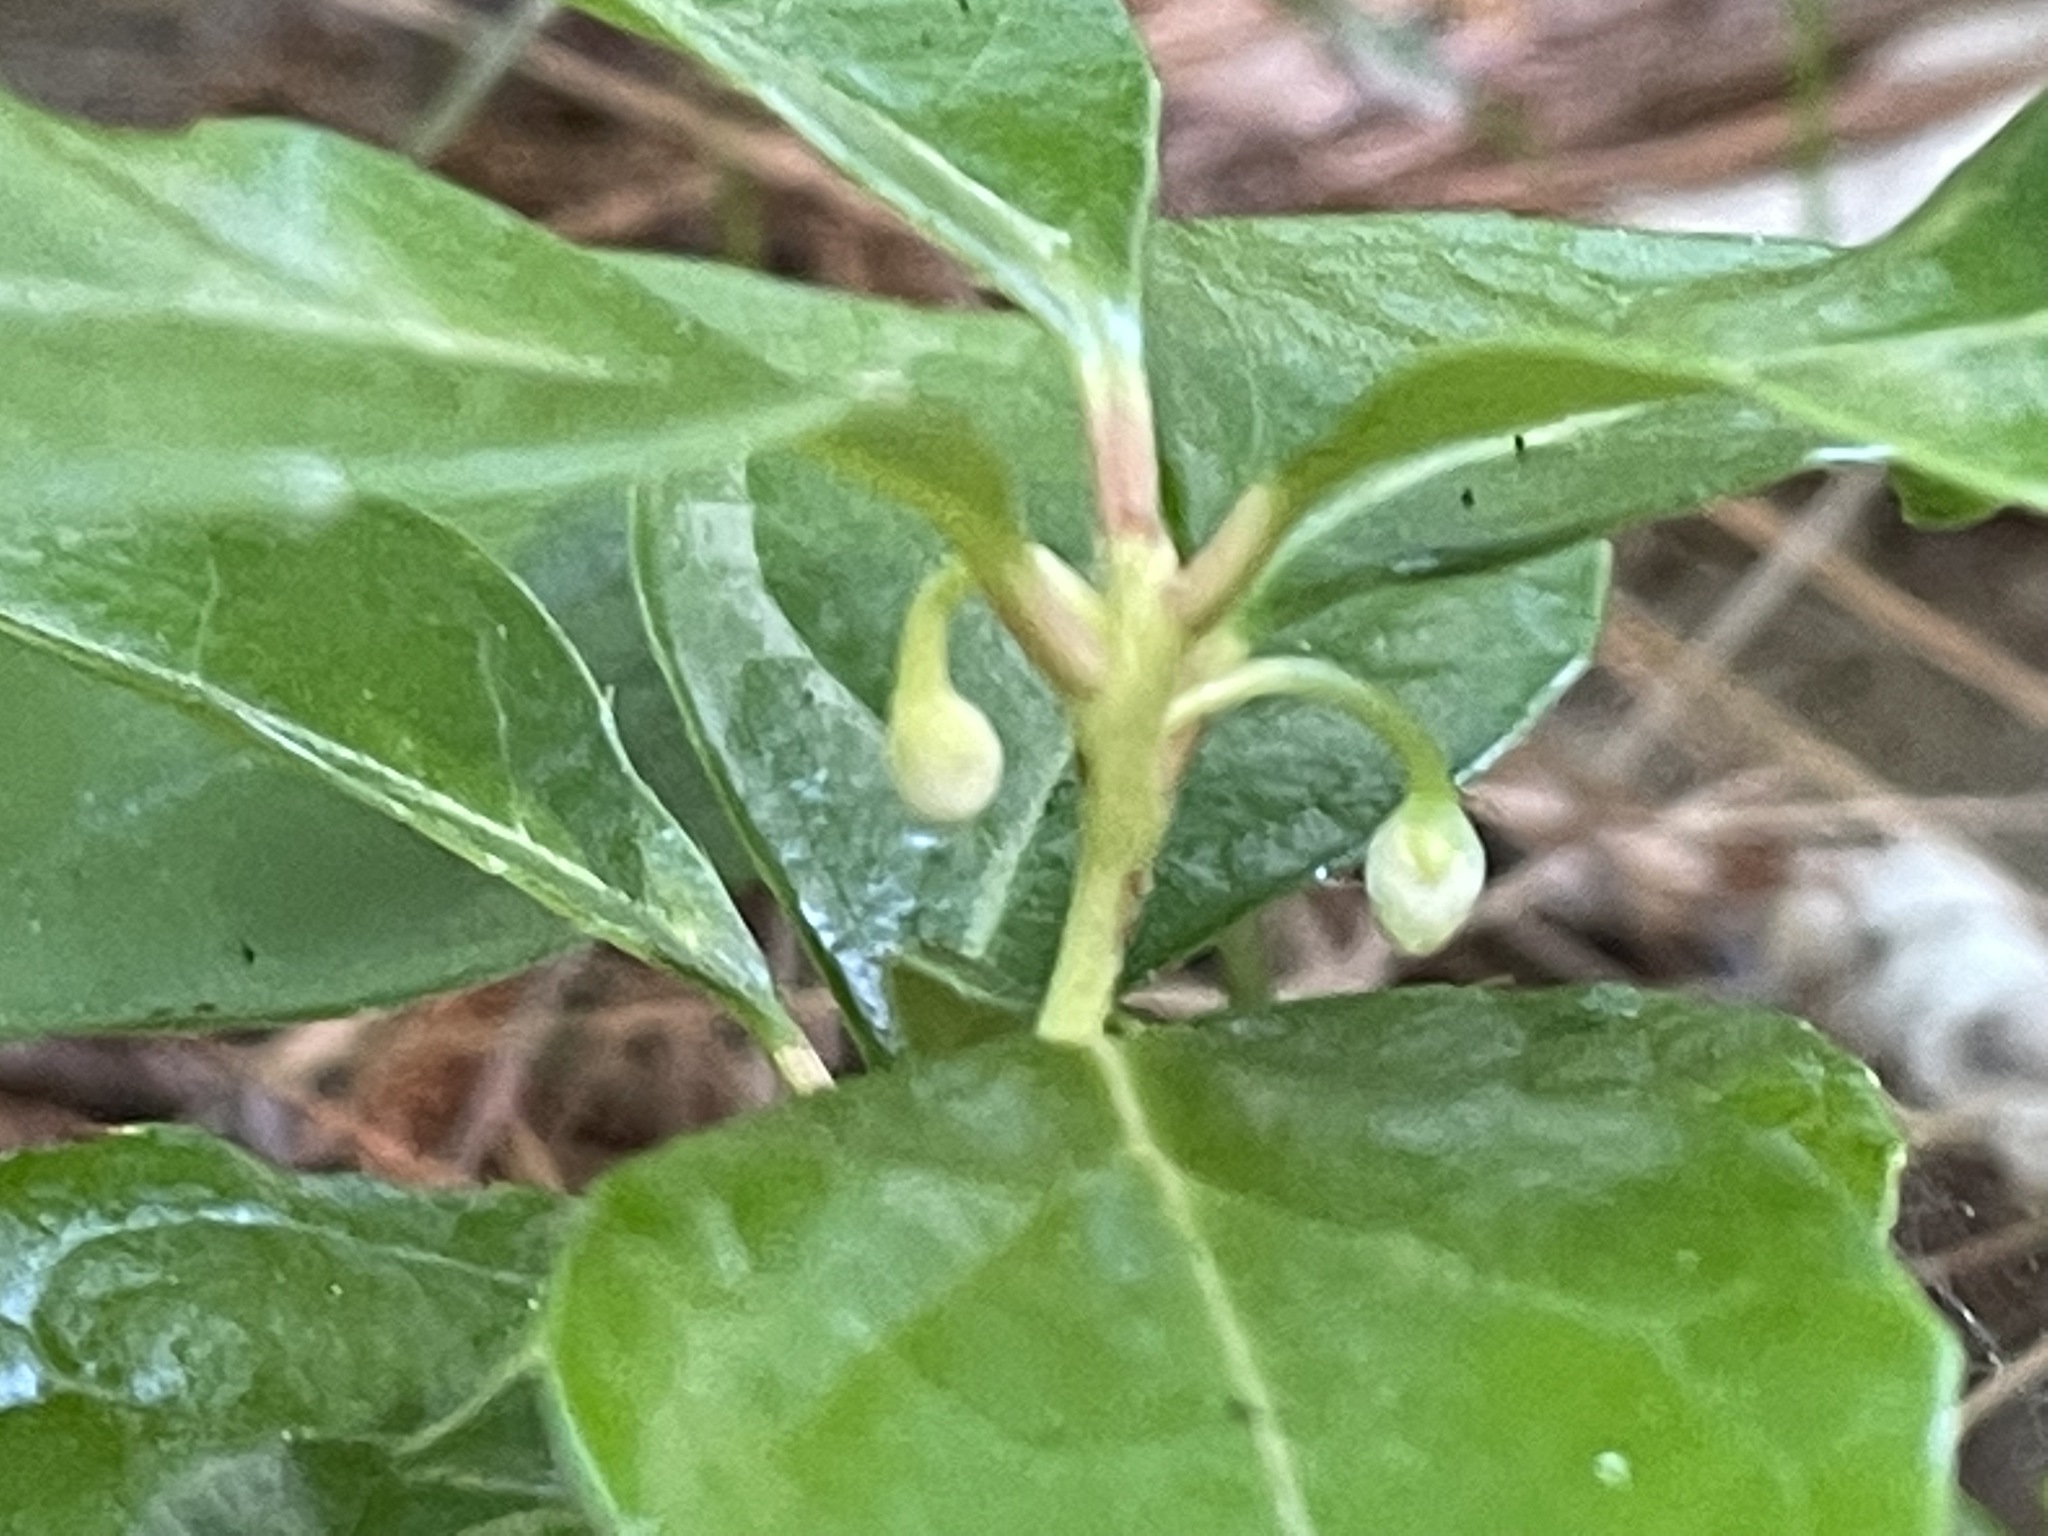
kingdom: Plantae
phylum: Tracheophyta
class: Magnoliopsida
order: Ericales
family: Ericaceae
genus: Gaultheria
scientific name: Gaultheria procumbens
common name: Checkerberry
